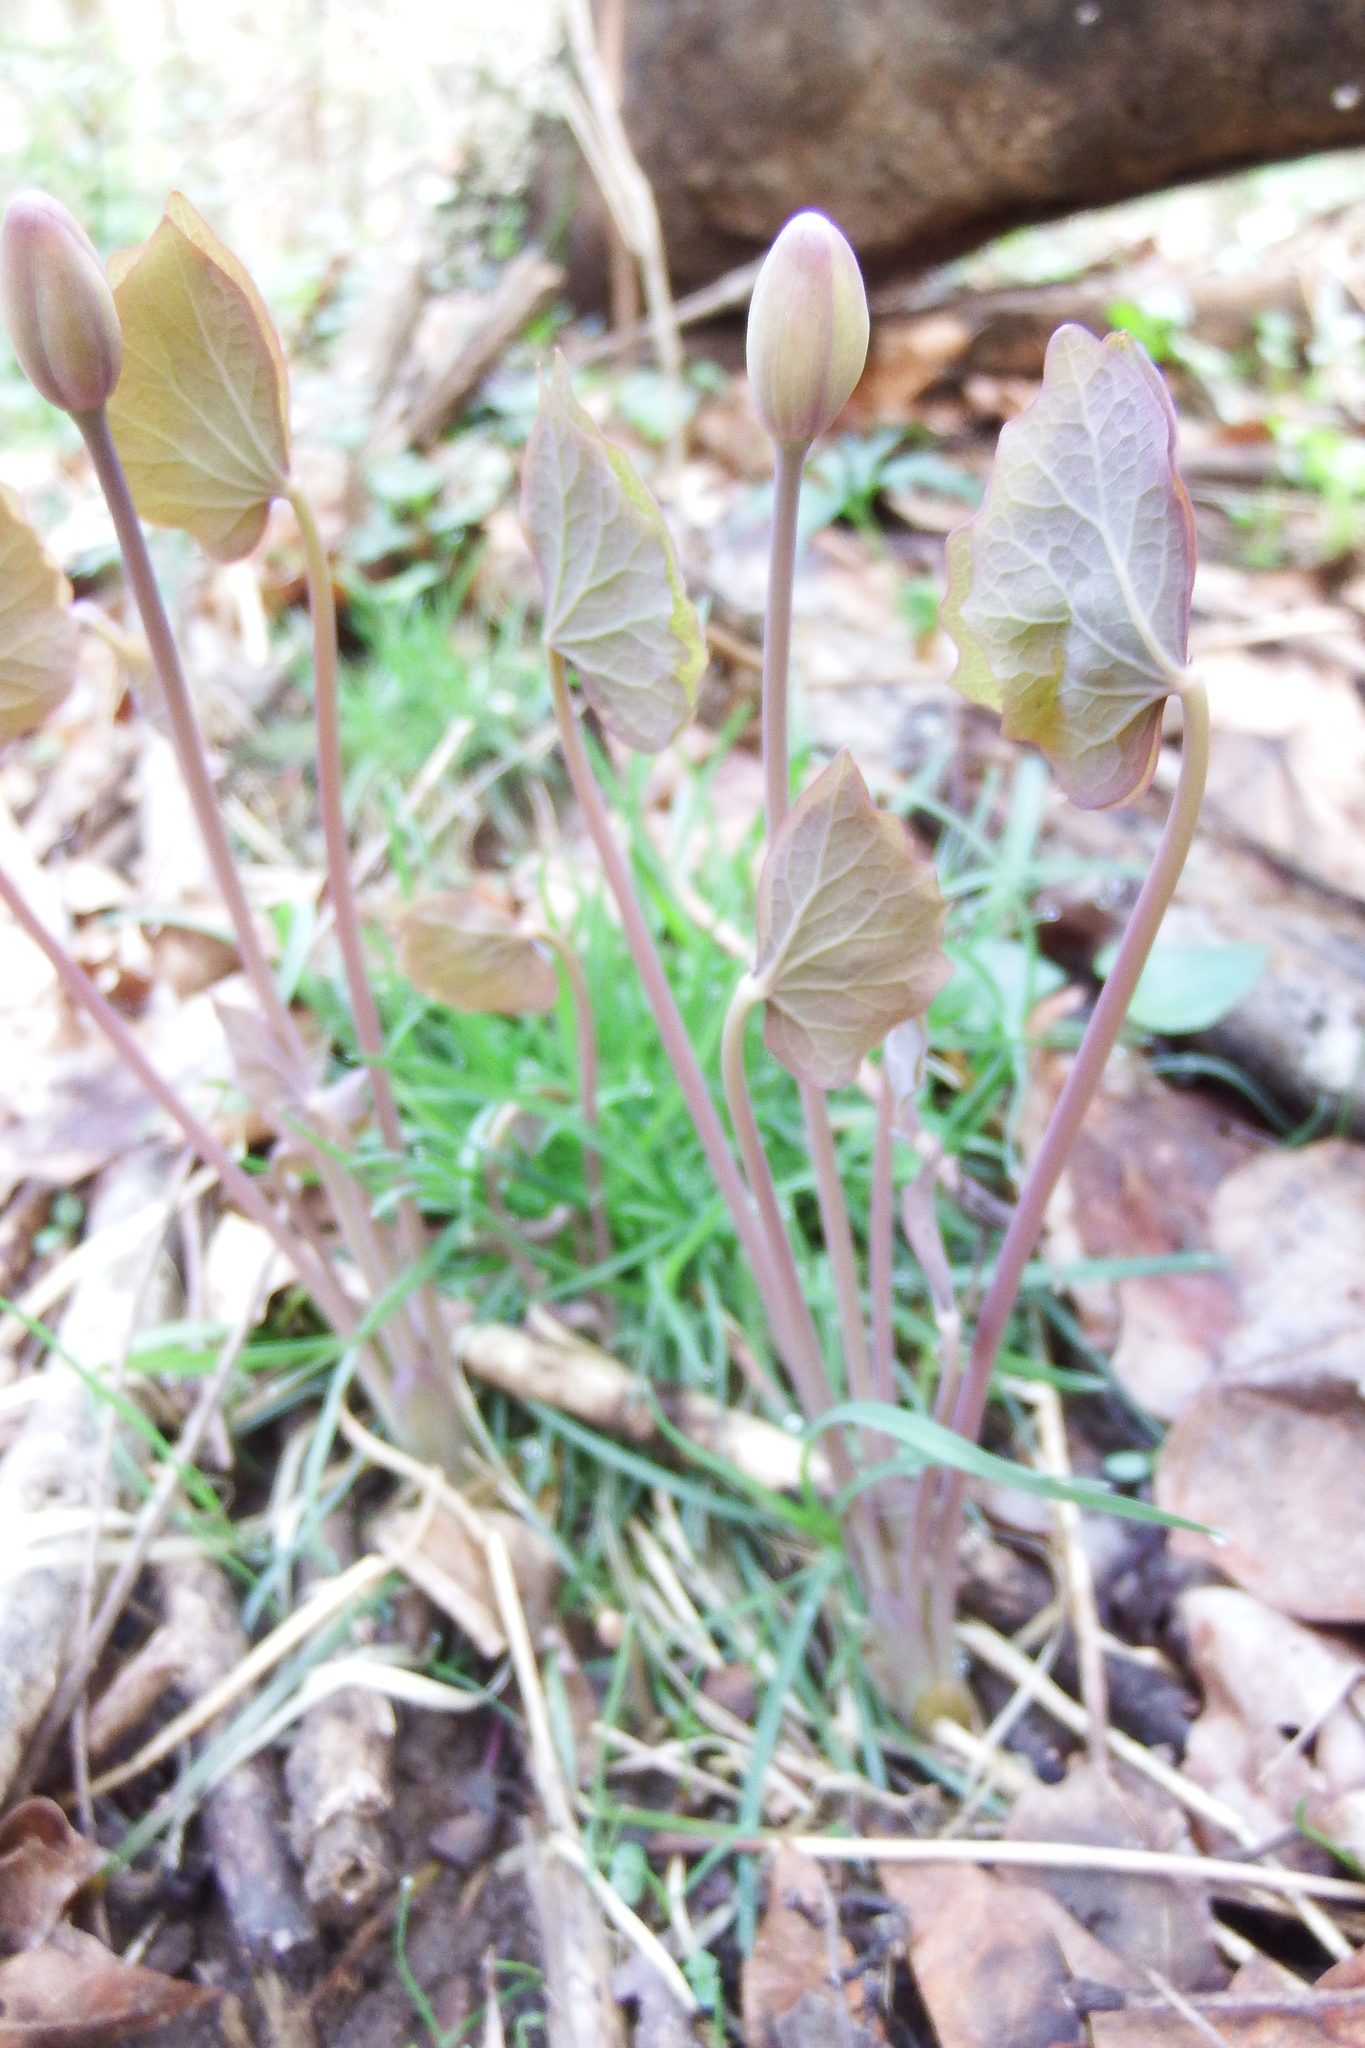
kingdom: Plantae
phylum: Tracheophyta
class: Magnoliopsida
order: Ranunculales
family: Berberidaceae
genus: Jeffersonia
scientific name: Jeffersonia diphylla
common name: Rheumatism-root
